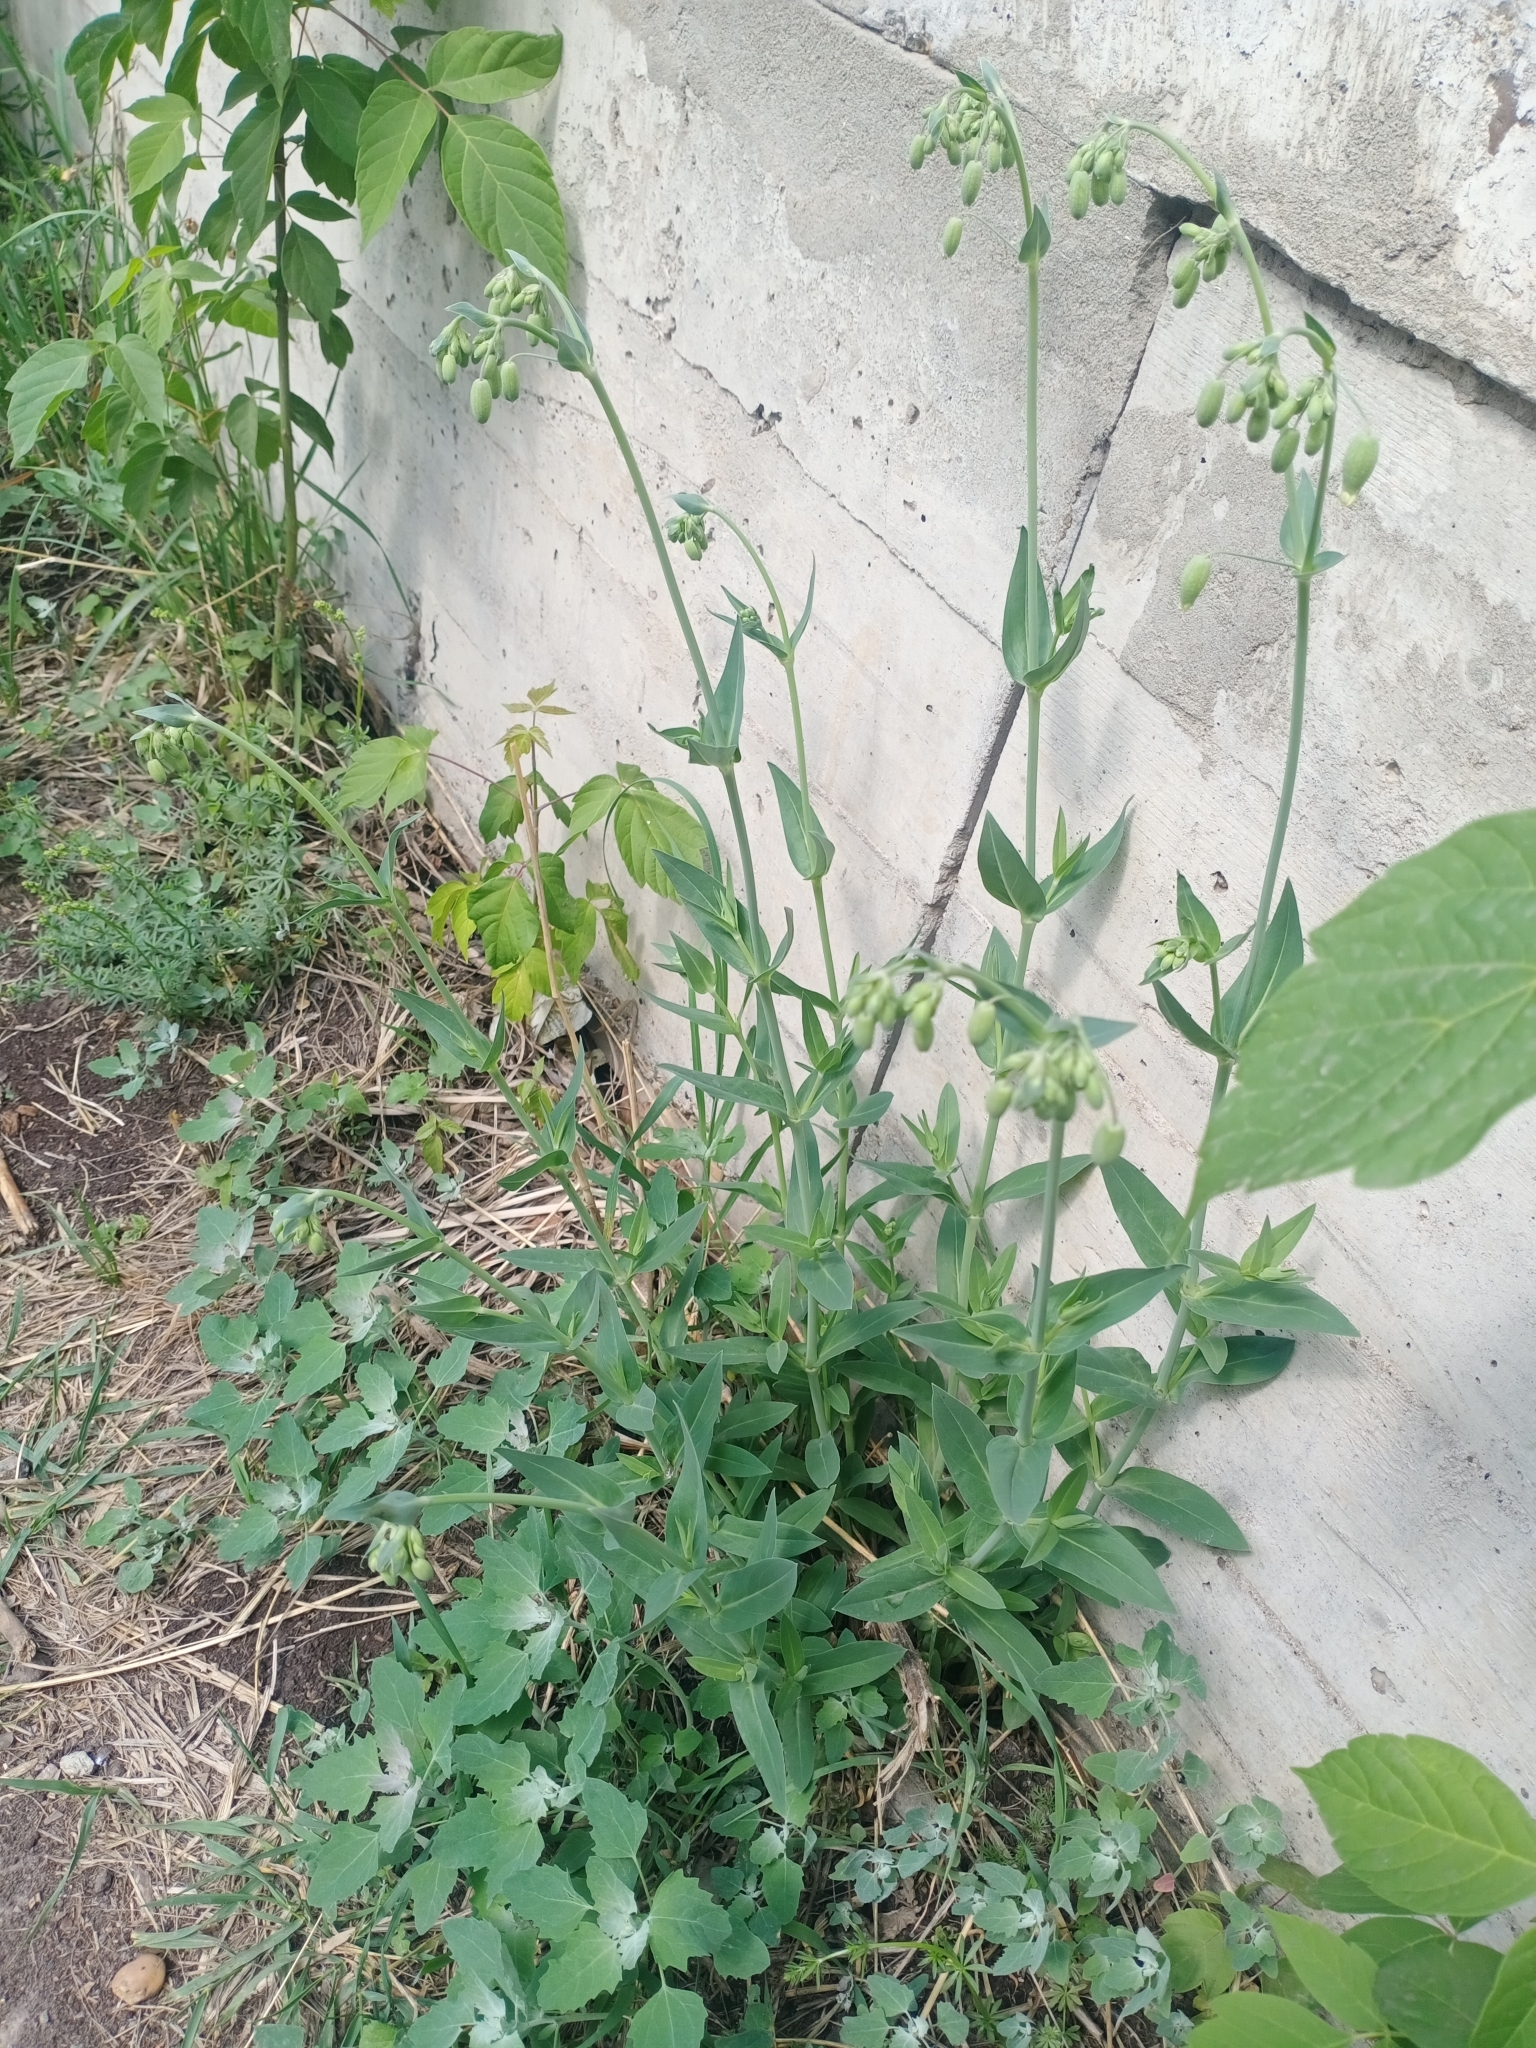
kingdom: Plantae
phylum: Tracheophyta
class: Magnoliopsida
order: Caryophyllales
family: Caryophyllaceae
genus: Silene
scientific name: Silene vulgaris
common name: Bladder campion
